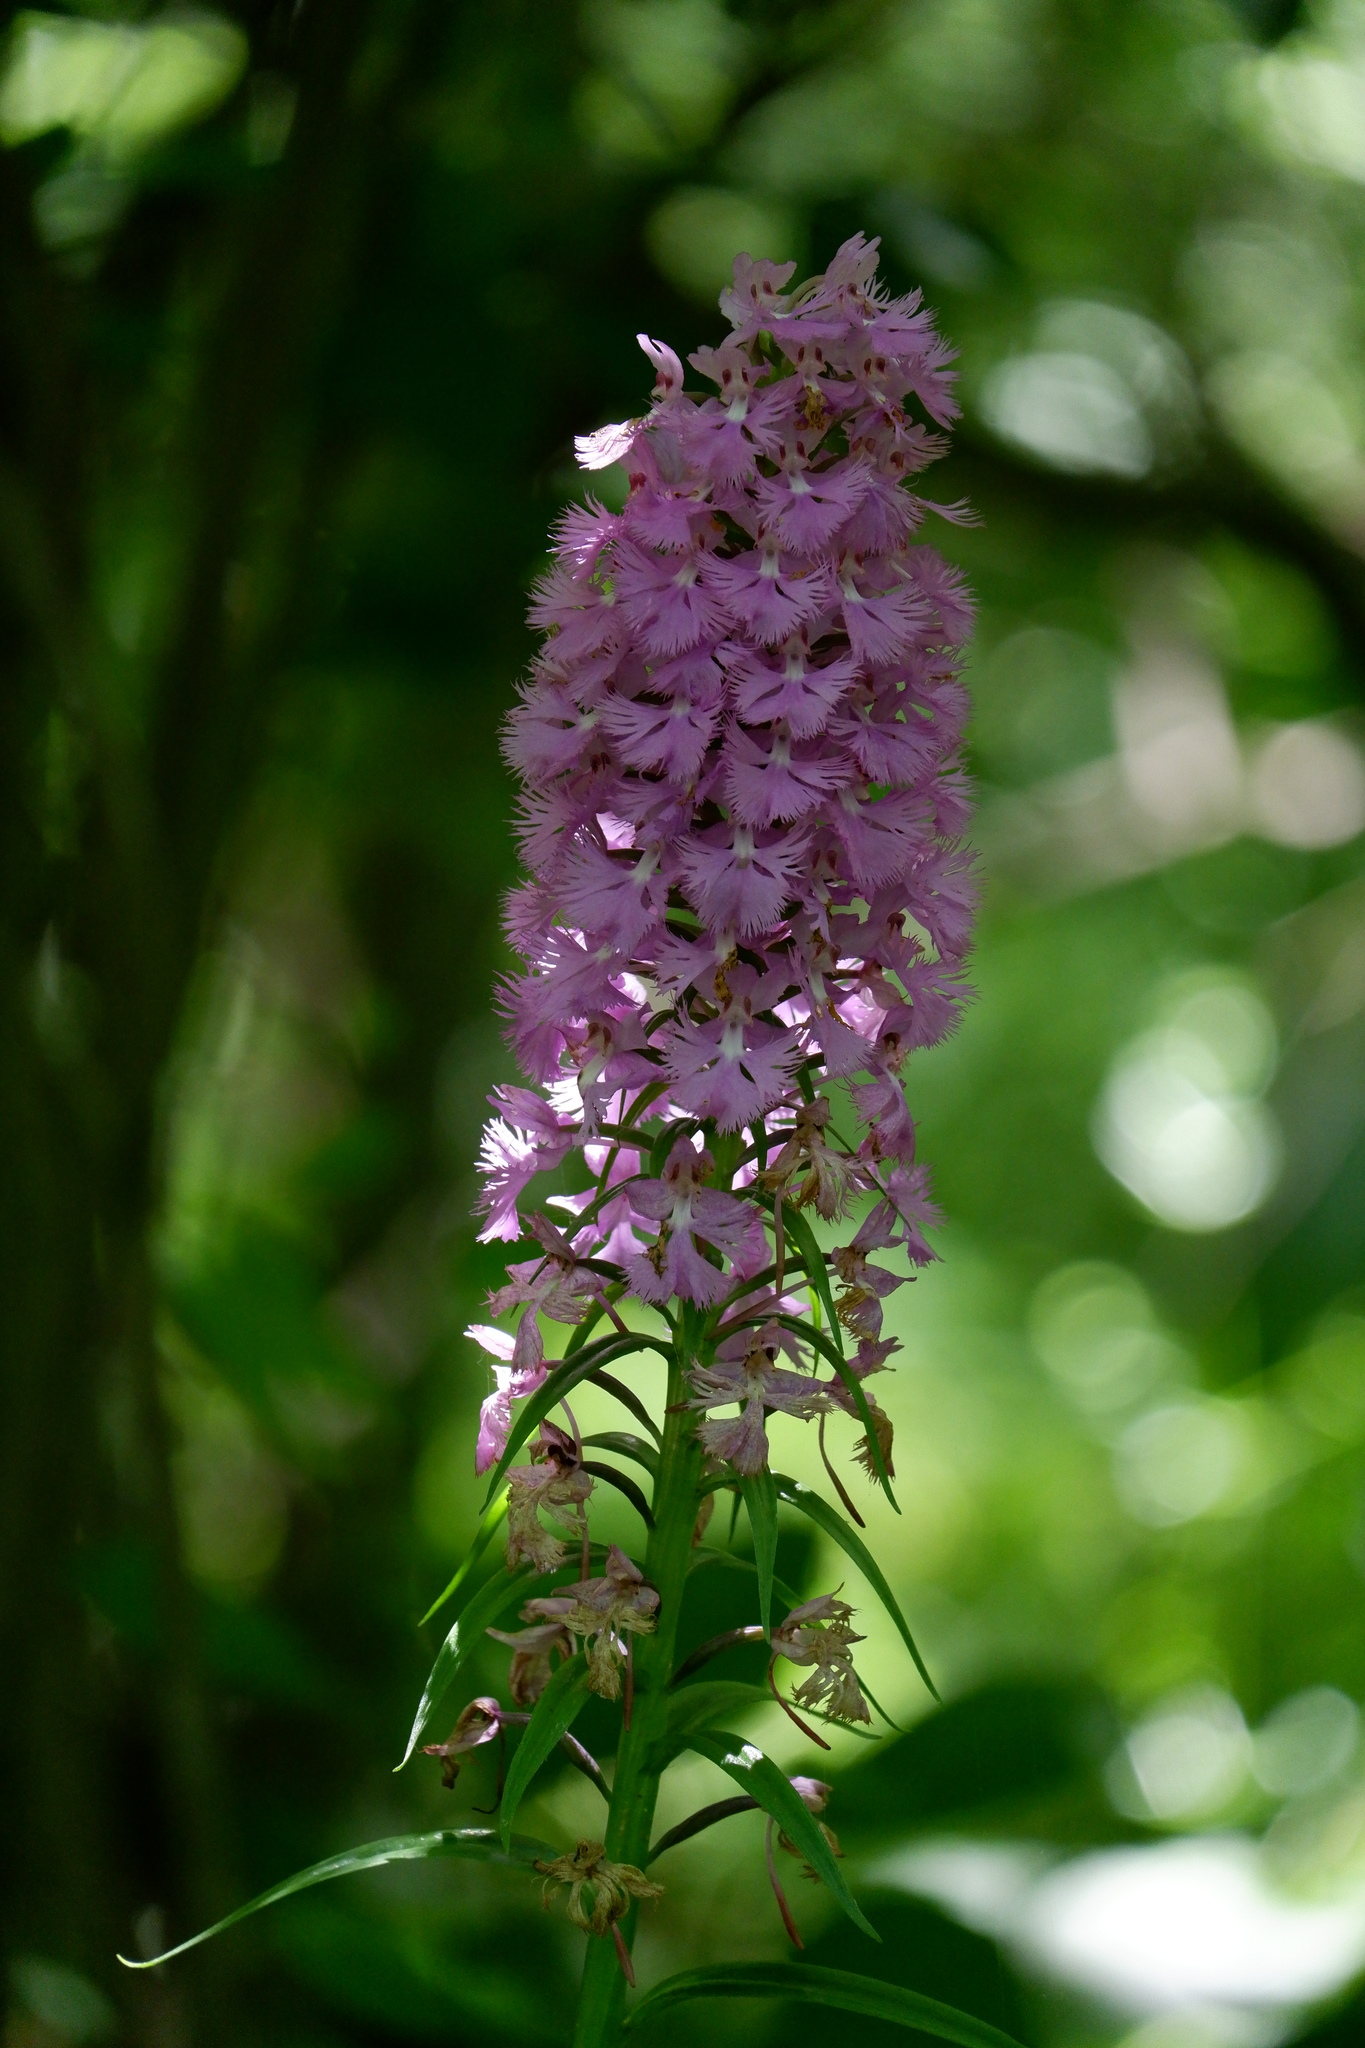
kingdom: Plantae
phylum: Tracheophyta
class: Liliopsida
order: Asparagales
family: Orchidaceae
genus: Platanthera
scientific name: Platanthera grandiflora
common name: Greater purple fringed orchid
